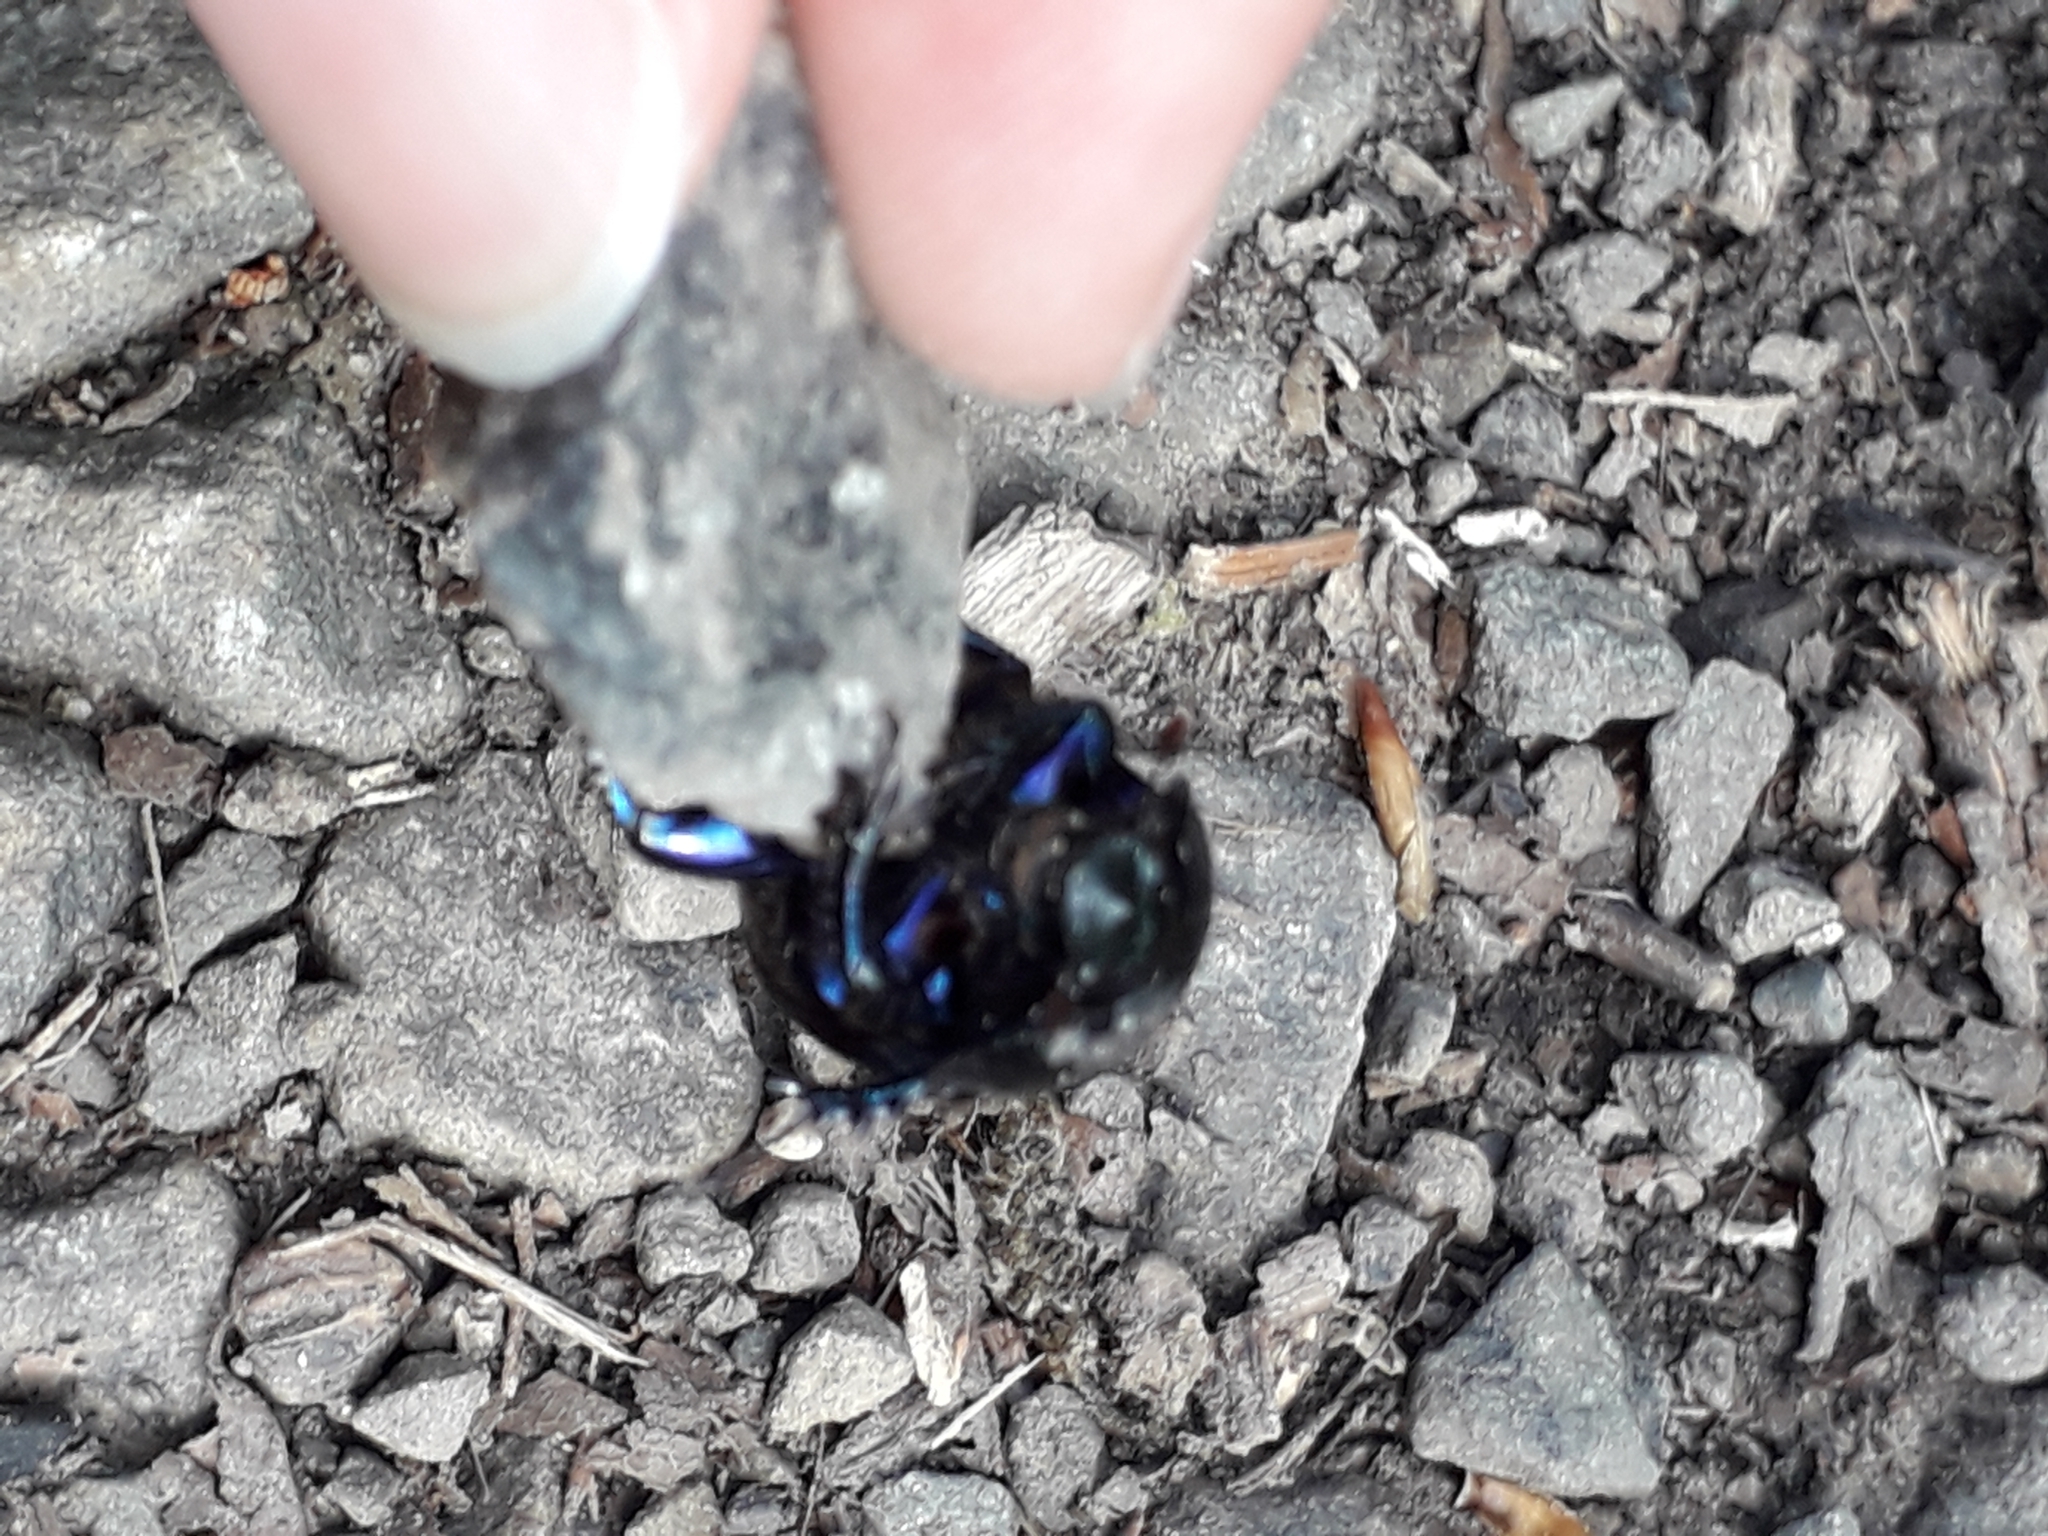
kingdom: Animalia
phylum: Arthropoda
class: Insecta
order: Coleoptera
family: Geotrupidae
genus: Anoplotrupes
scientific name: Anoplotrupes stercorosus
